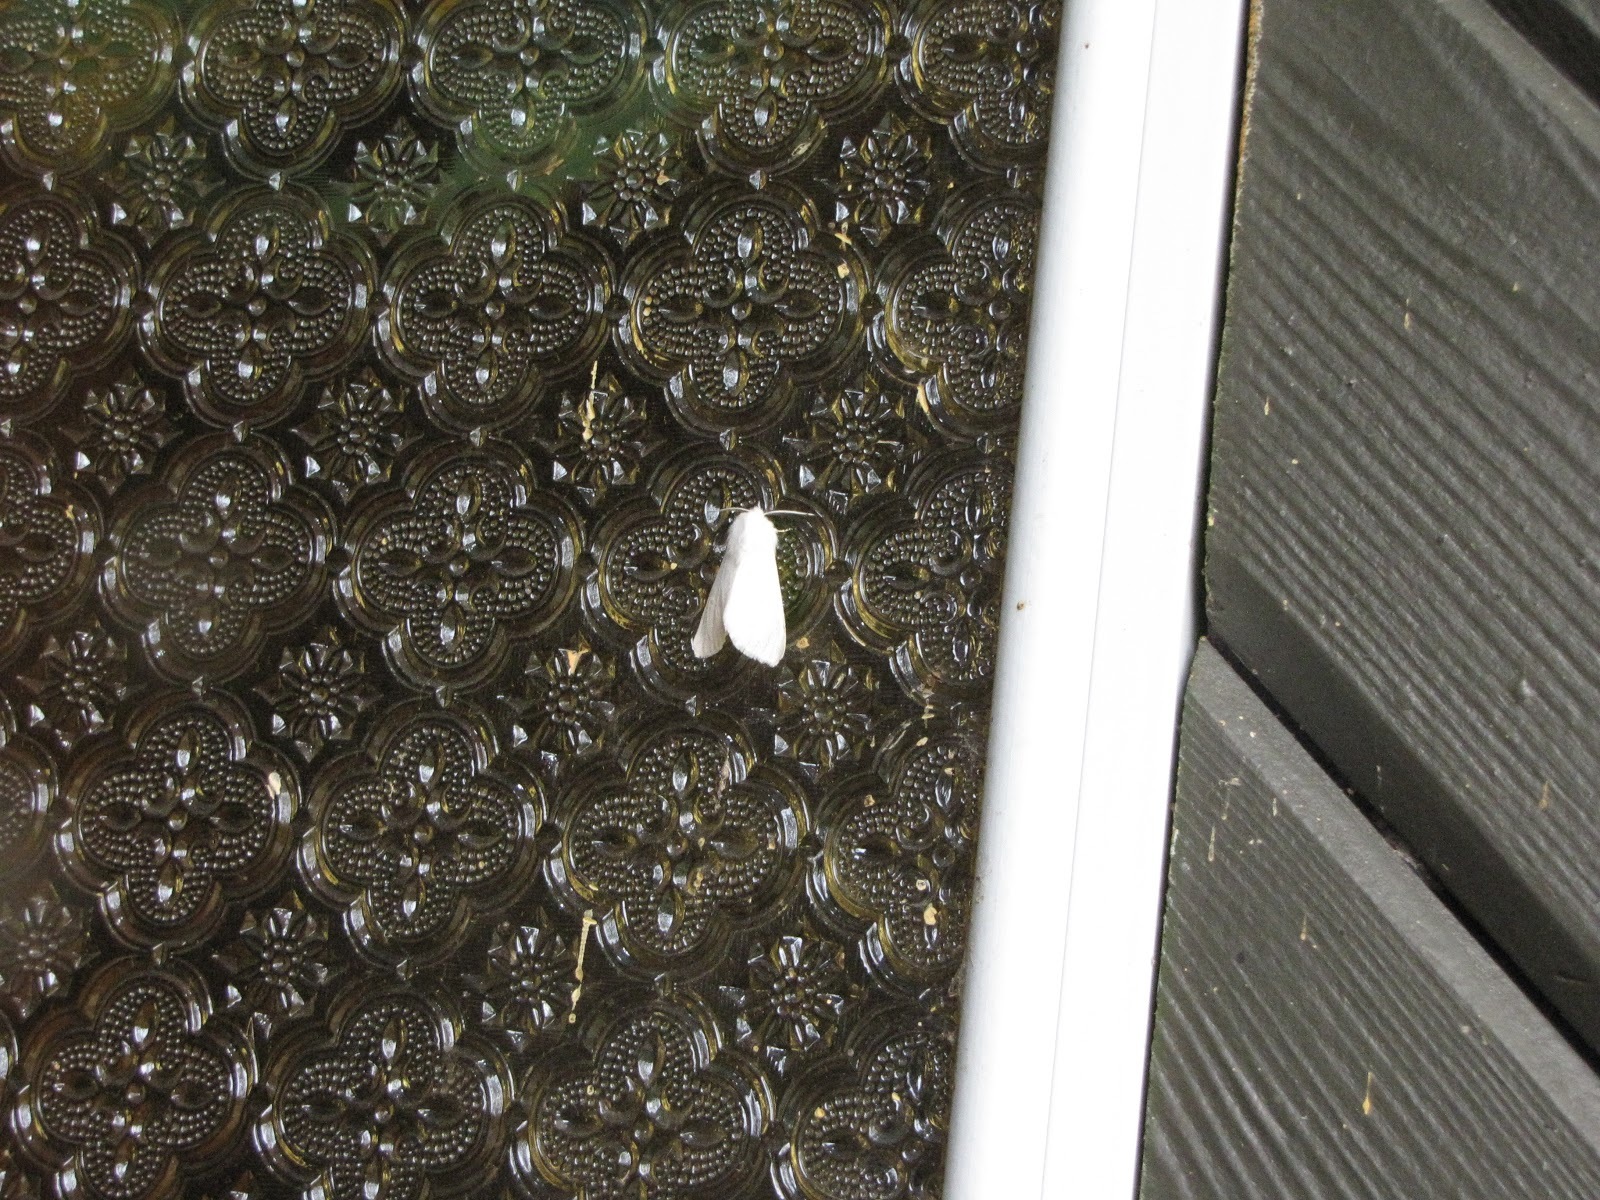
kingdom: Animalia
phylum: Arthropoda
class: Insecta
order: Lepidoptera
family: Erebidae
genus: Hyphantria
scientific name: Hyphantria cunea
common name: American white moth
